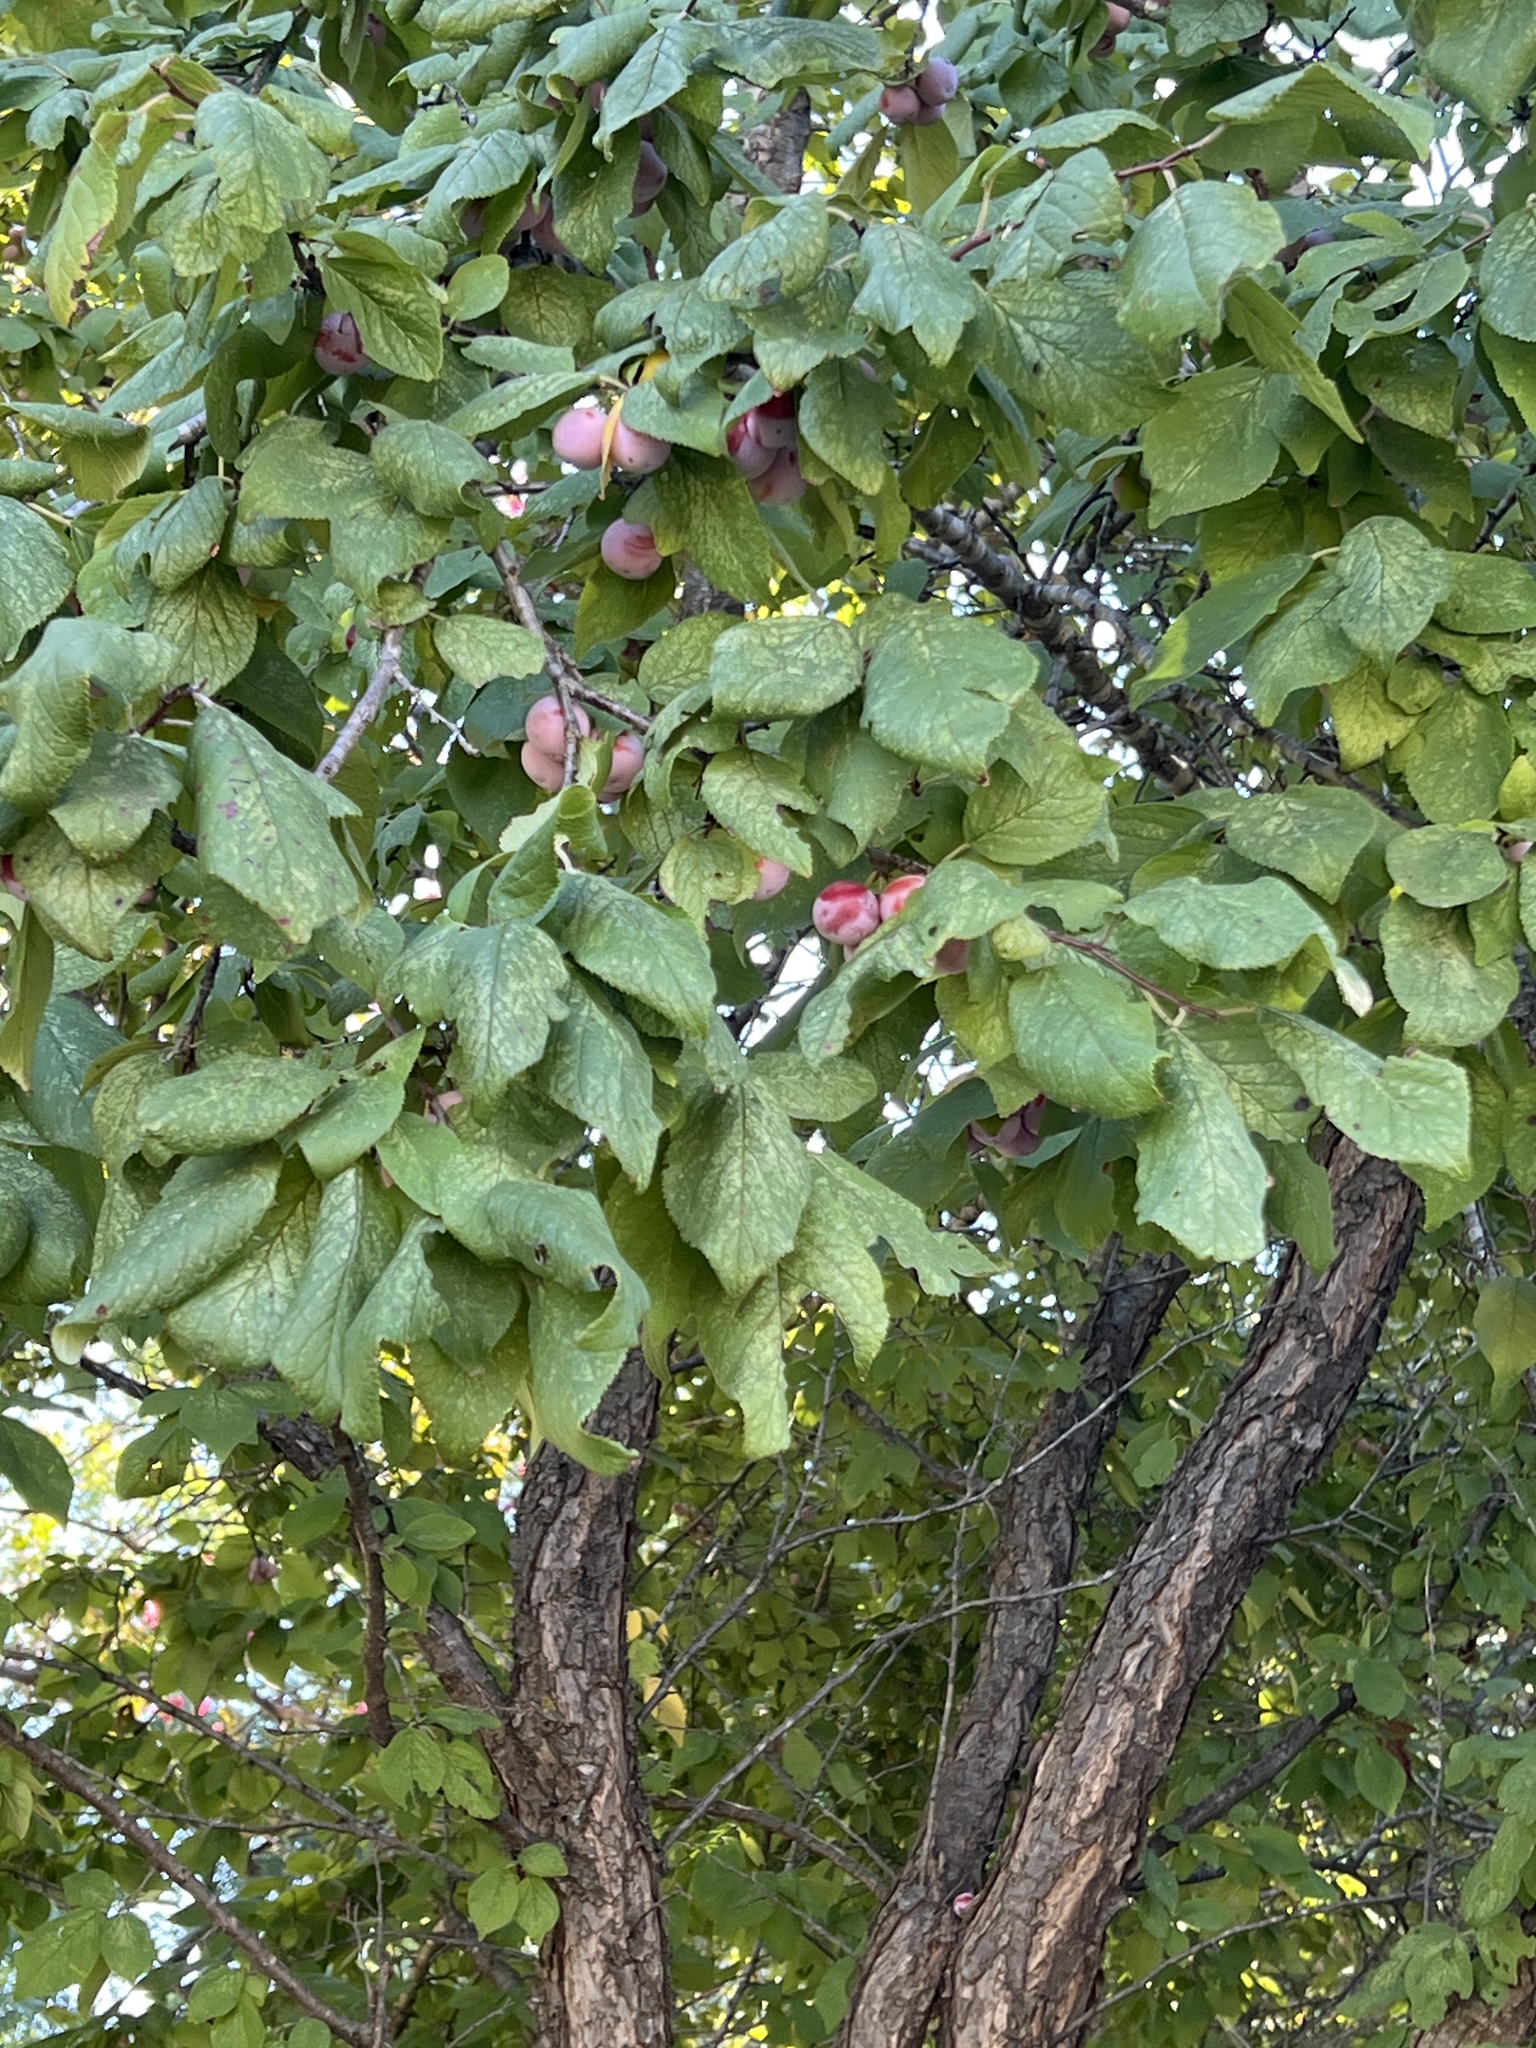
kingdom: Plantae
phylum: Tracheophyta
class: Magnoliopsida
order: Rosales
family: Rosaceae
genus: Prunus
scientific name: Prunus mexicana
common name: Mexican plum
